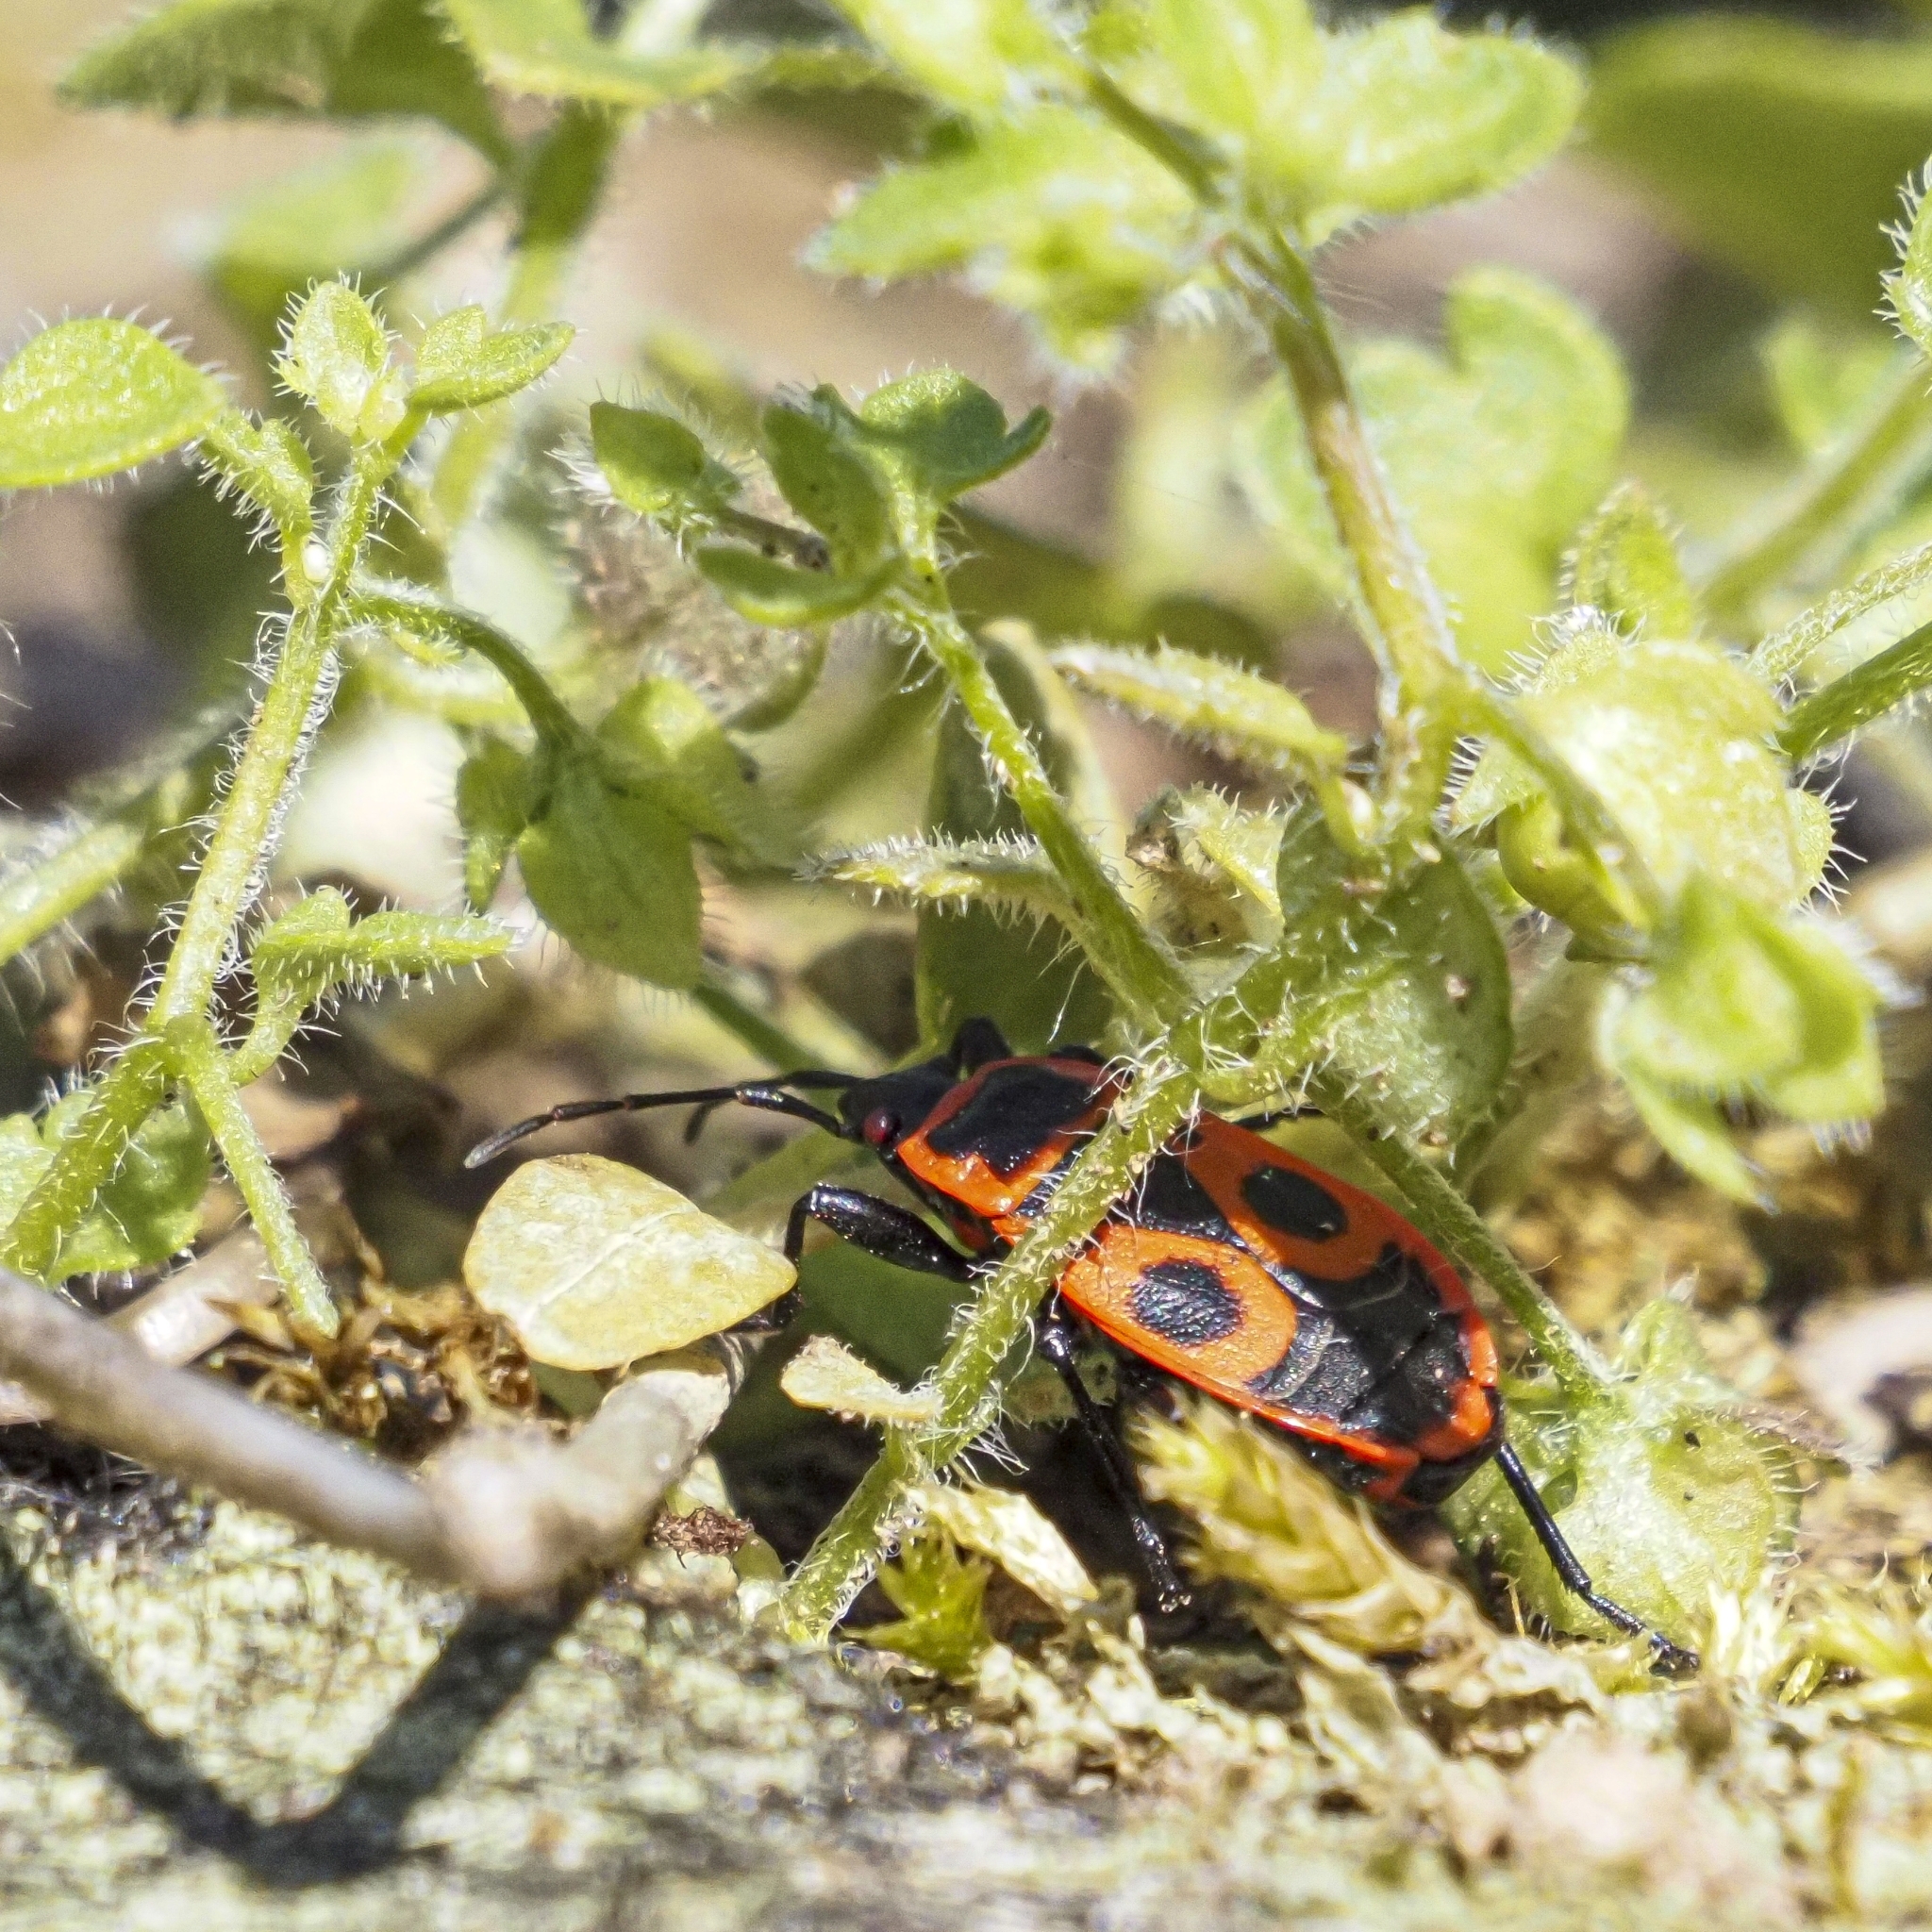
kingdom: Animalia
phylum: Arthropoda
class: Insecta
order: Hemiptera
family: Pyrrhocoridae
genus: Pyrrhocoris
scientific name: Pyrrhocoris apterus
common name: Firebug
